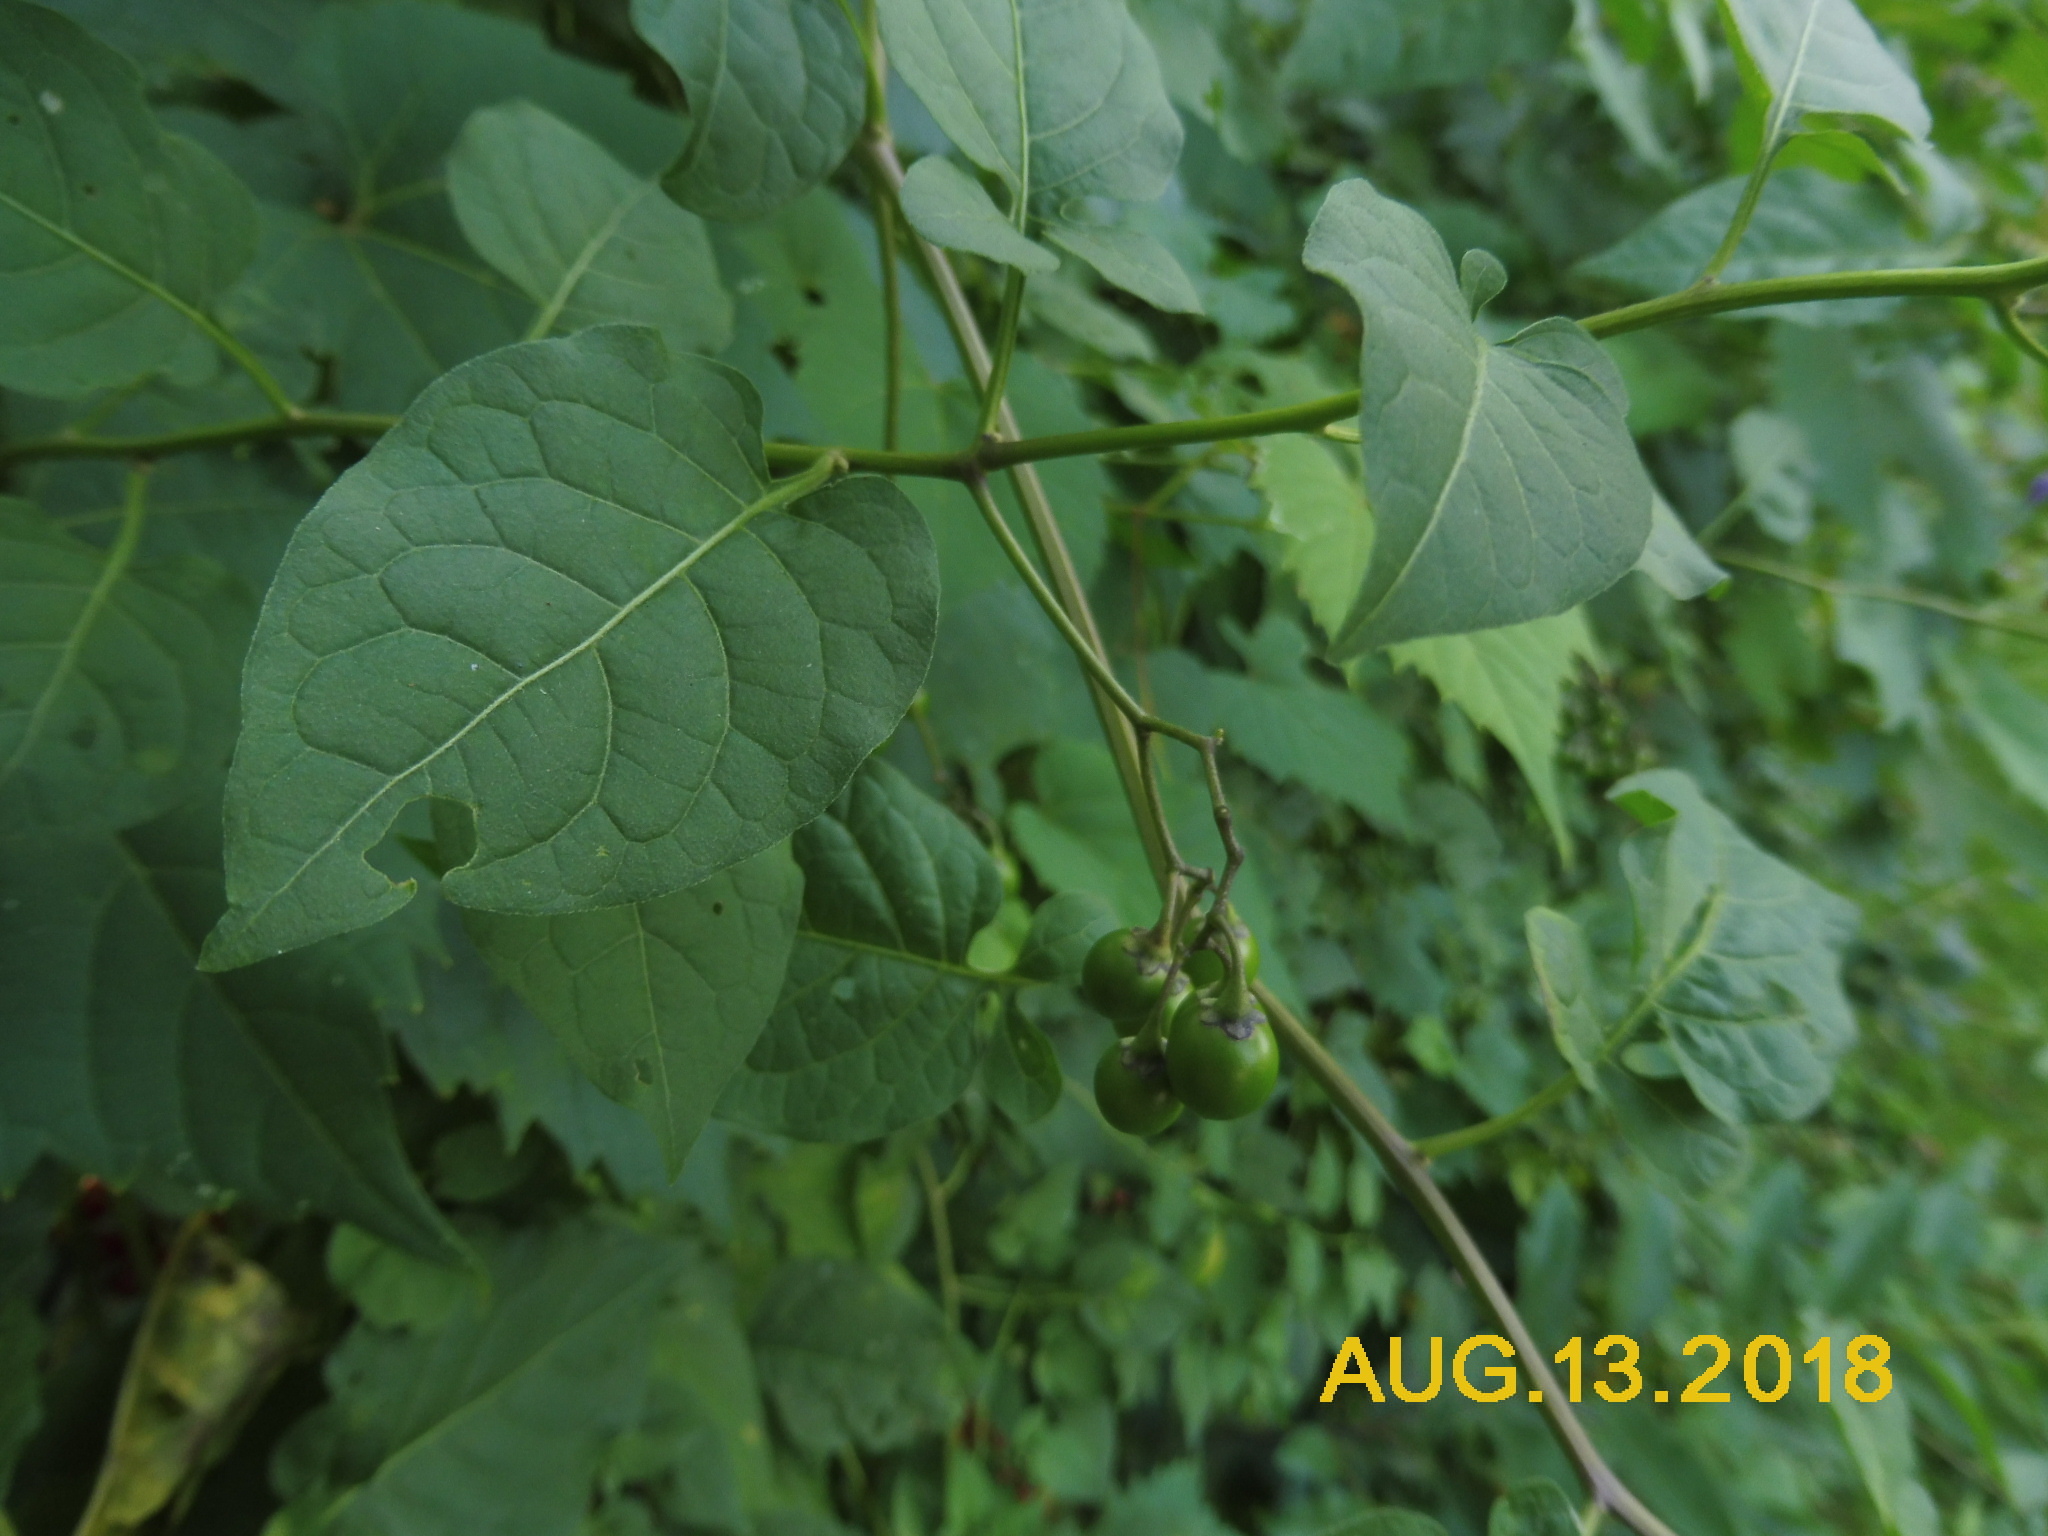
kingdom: Plantae
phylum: Tracheophyta
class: Magnoliopsida
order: Solanales
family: Solanaceae
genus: Solanum
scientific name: Solanum dulcamara
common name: Climbing nightshade
